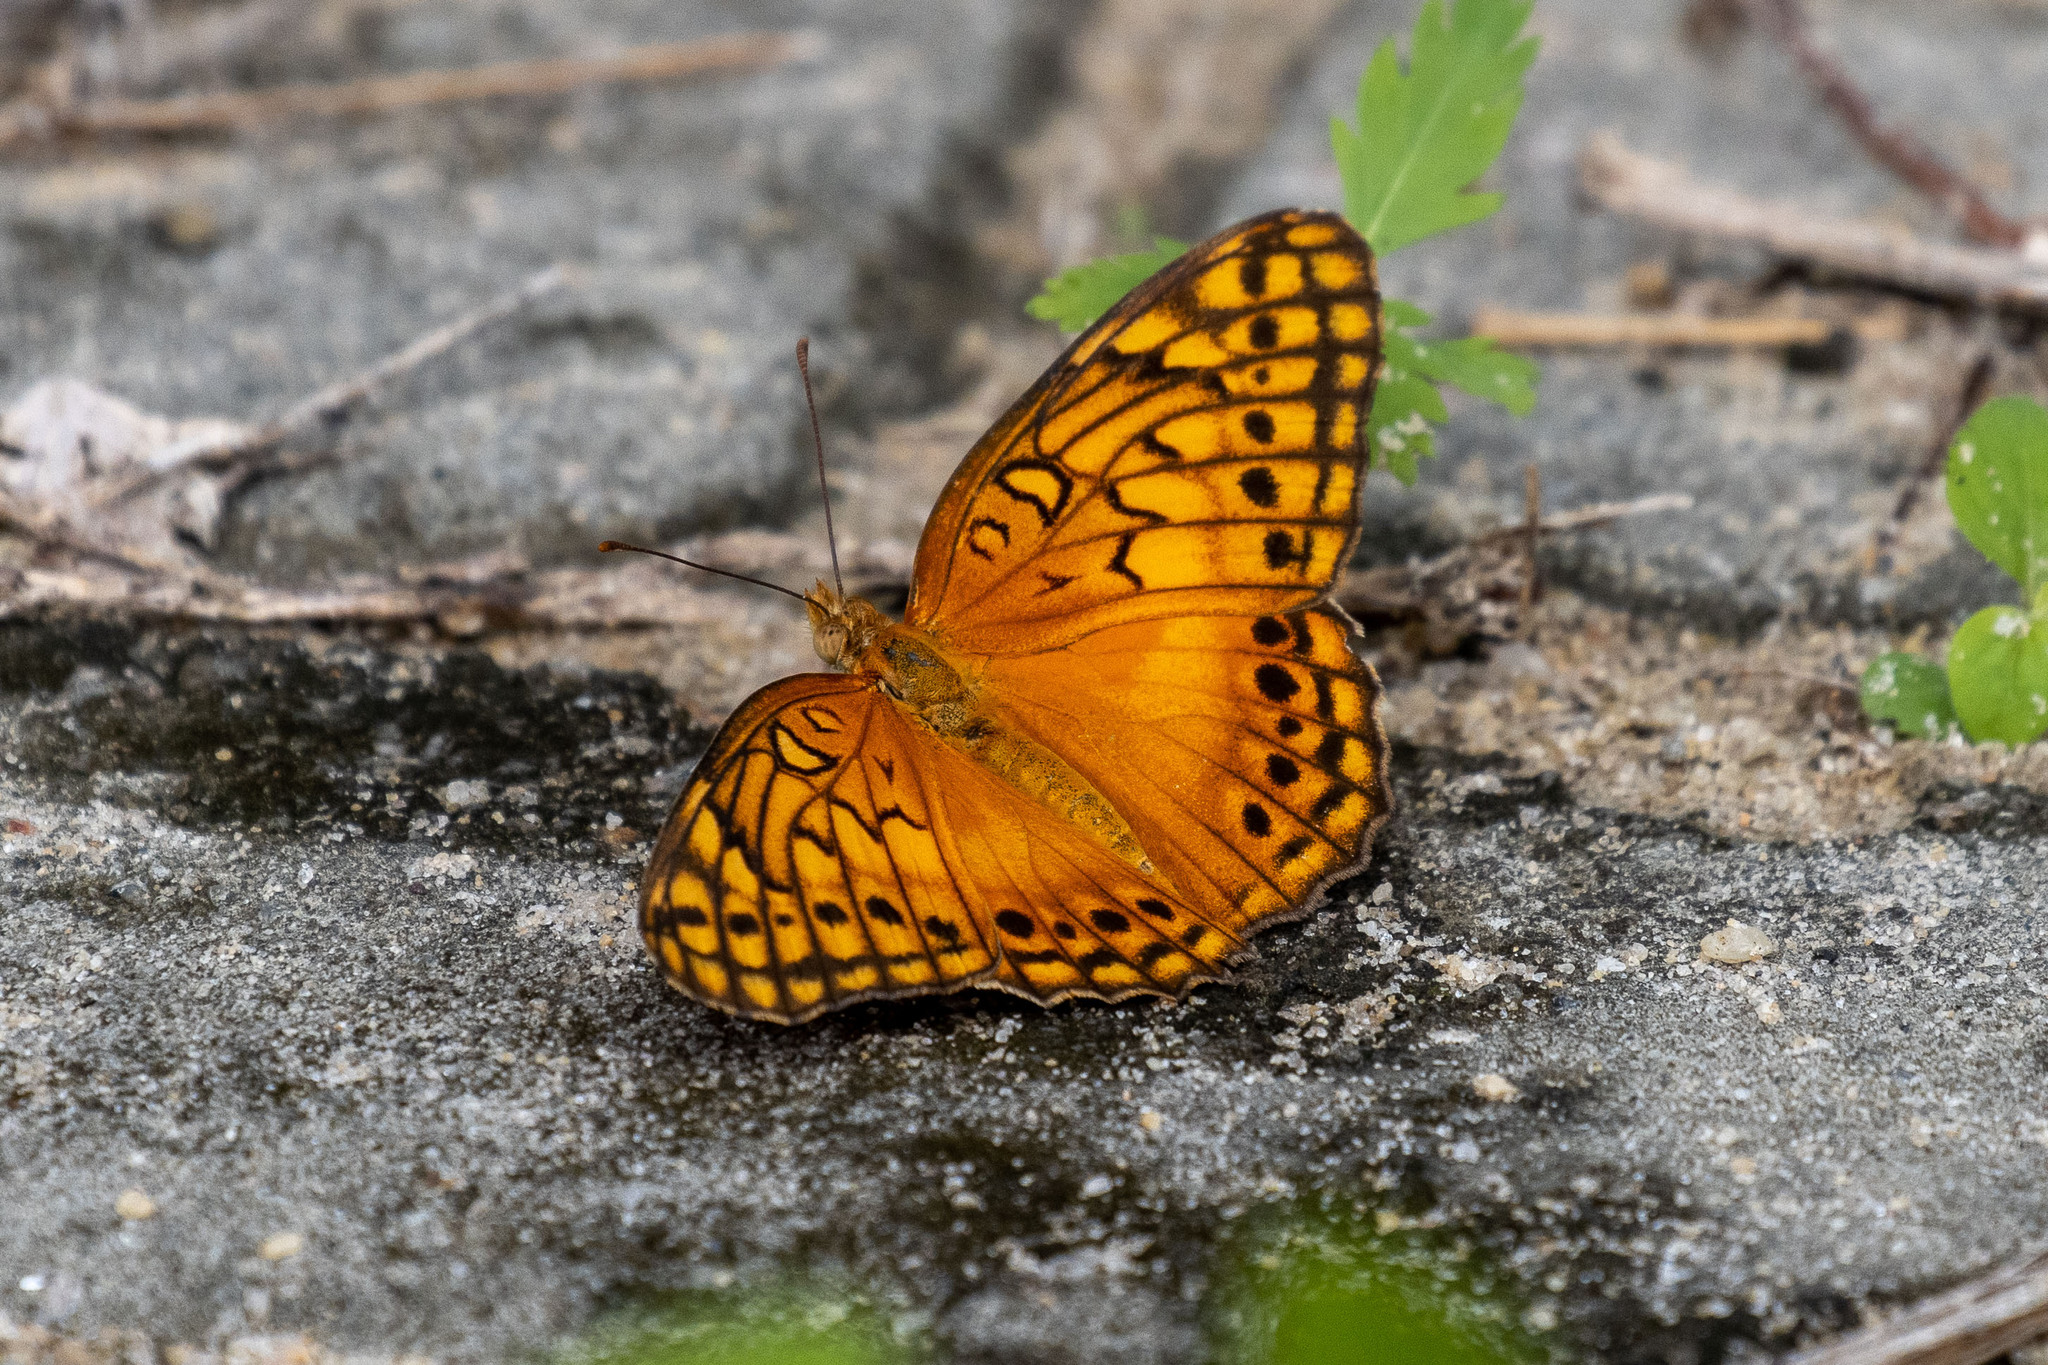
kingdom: Animalia
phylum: Arthropoda
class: Insecta
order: Lepidoptera
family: Nymphalidae
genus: Euptoieta
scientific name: Euptoieta hegesia
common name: Mexican fritillary
